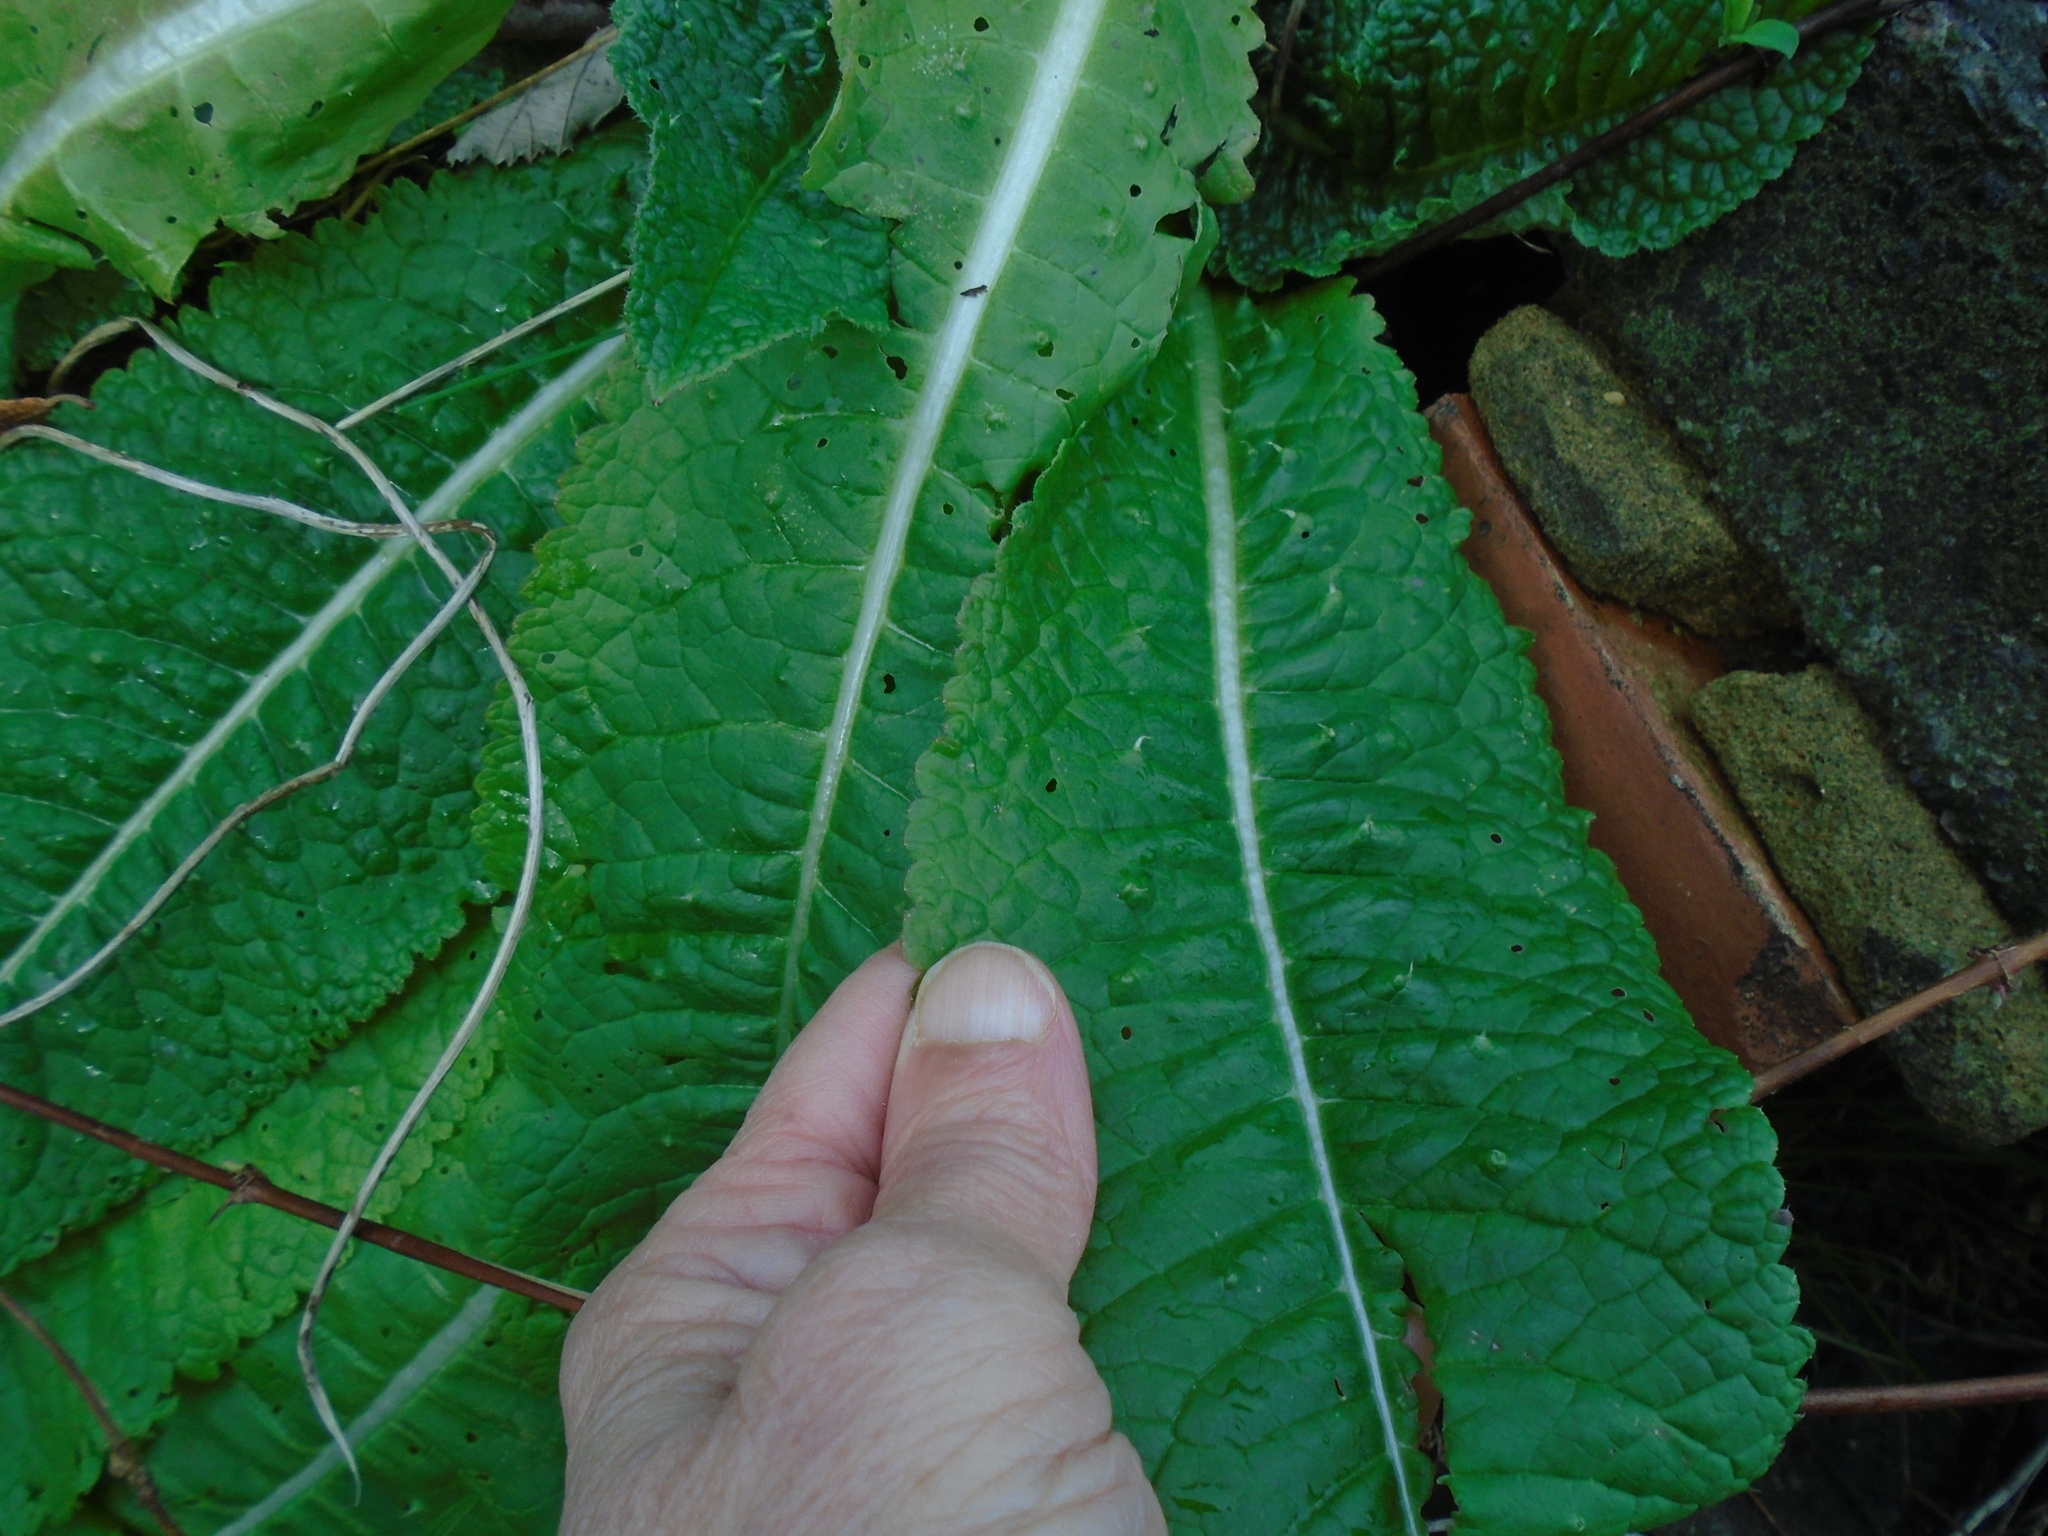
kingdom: Plantae
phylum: Tracheophyta
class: Magnoliopsida
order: Dipsacales
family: Caprifoliaceae
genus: Dipsacus
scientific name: Dipsacus fullonum
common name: Teasel
